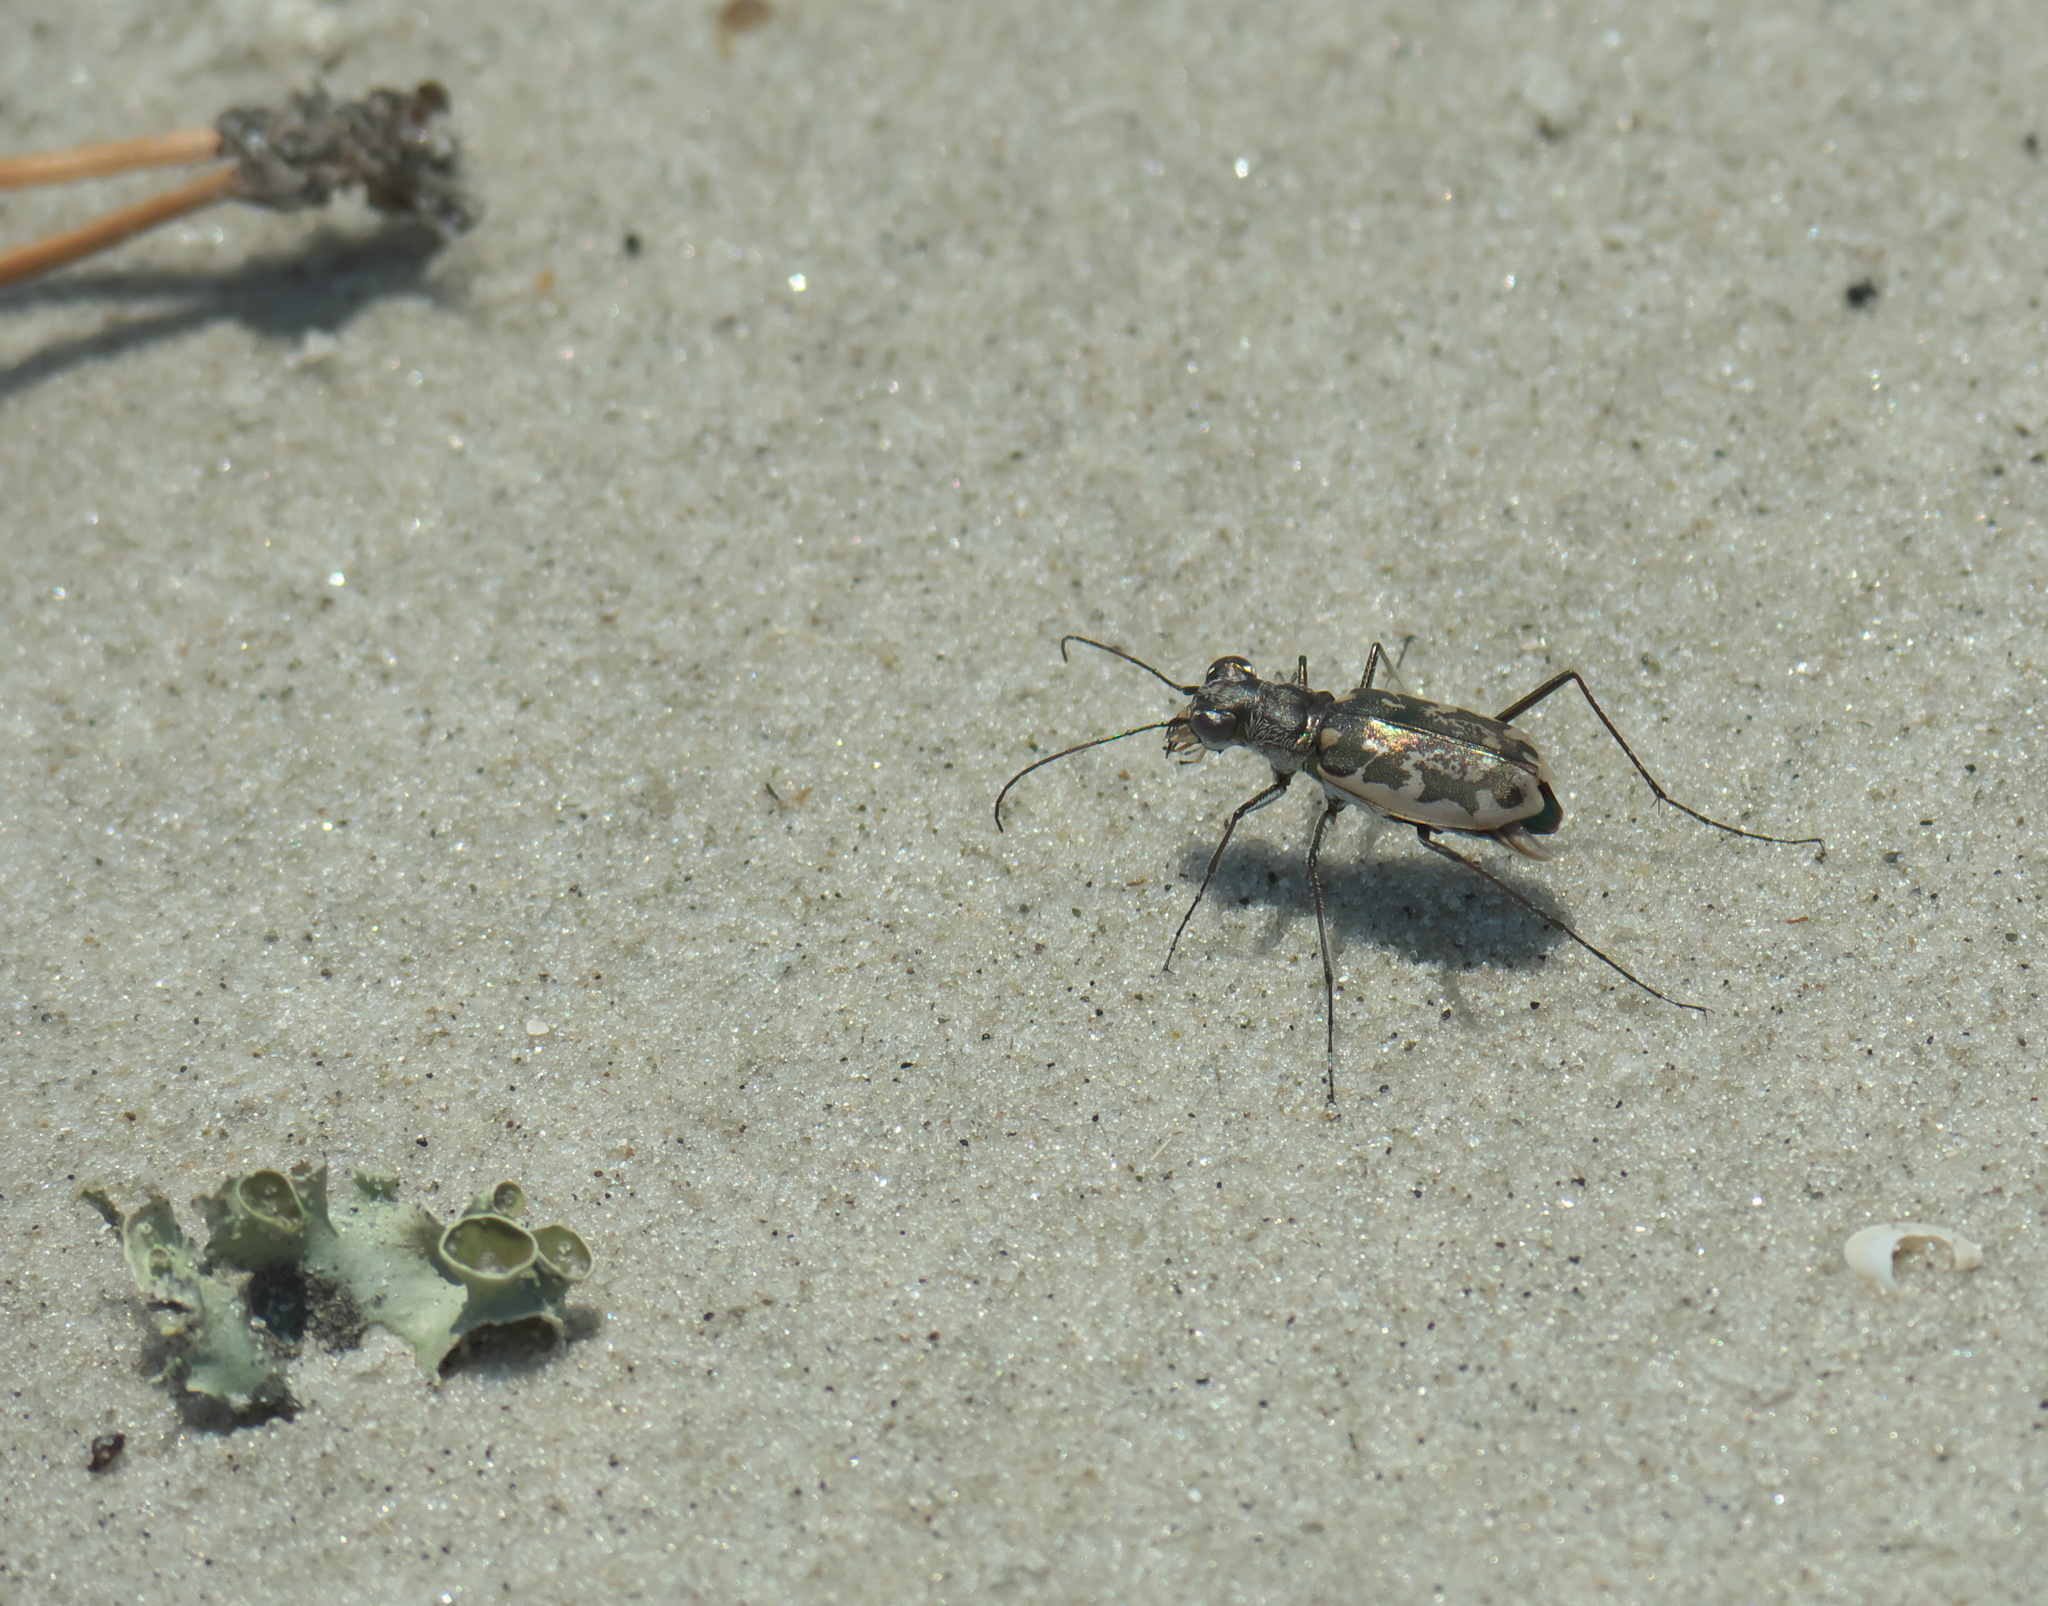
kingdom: Animalia
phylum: Arthropoda
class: Insecta
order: Coleoptera
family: Carabidae
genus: Ellipsoptera
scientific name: Ellipsoptera marginata
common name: Margined tiger beetle
